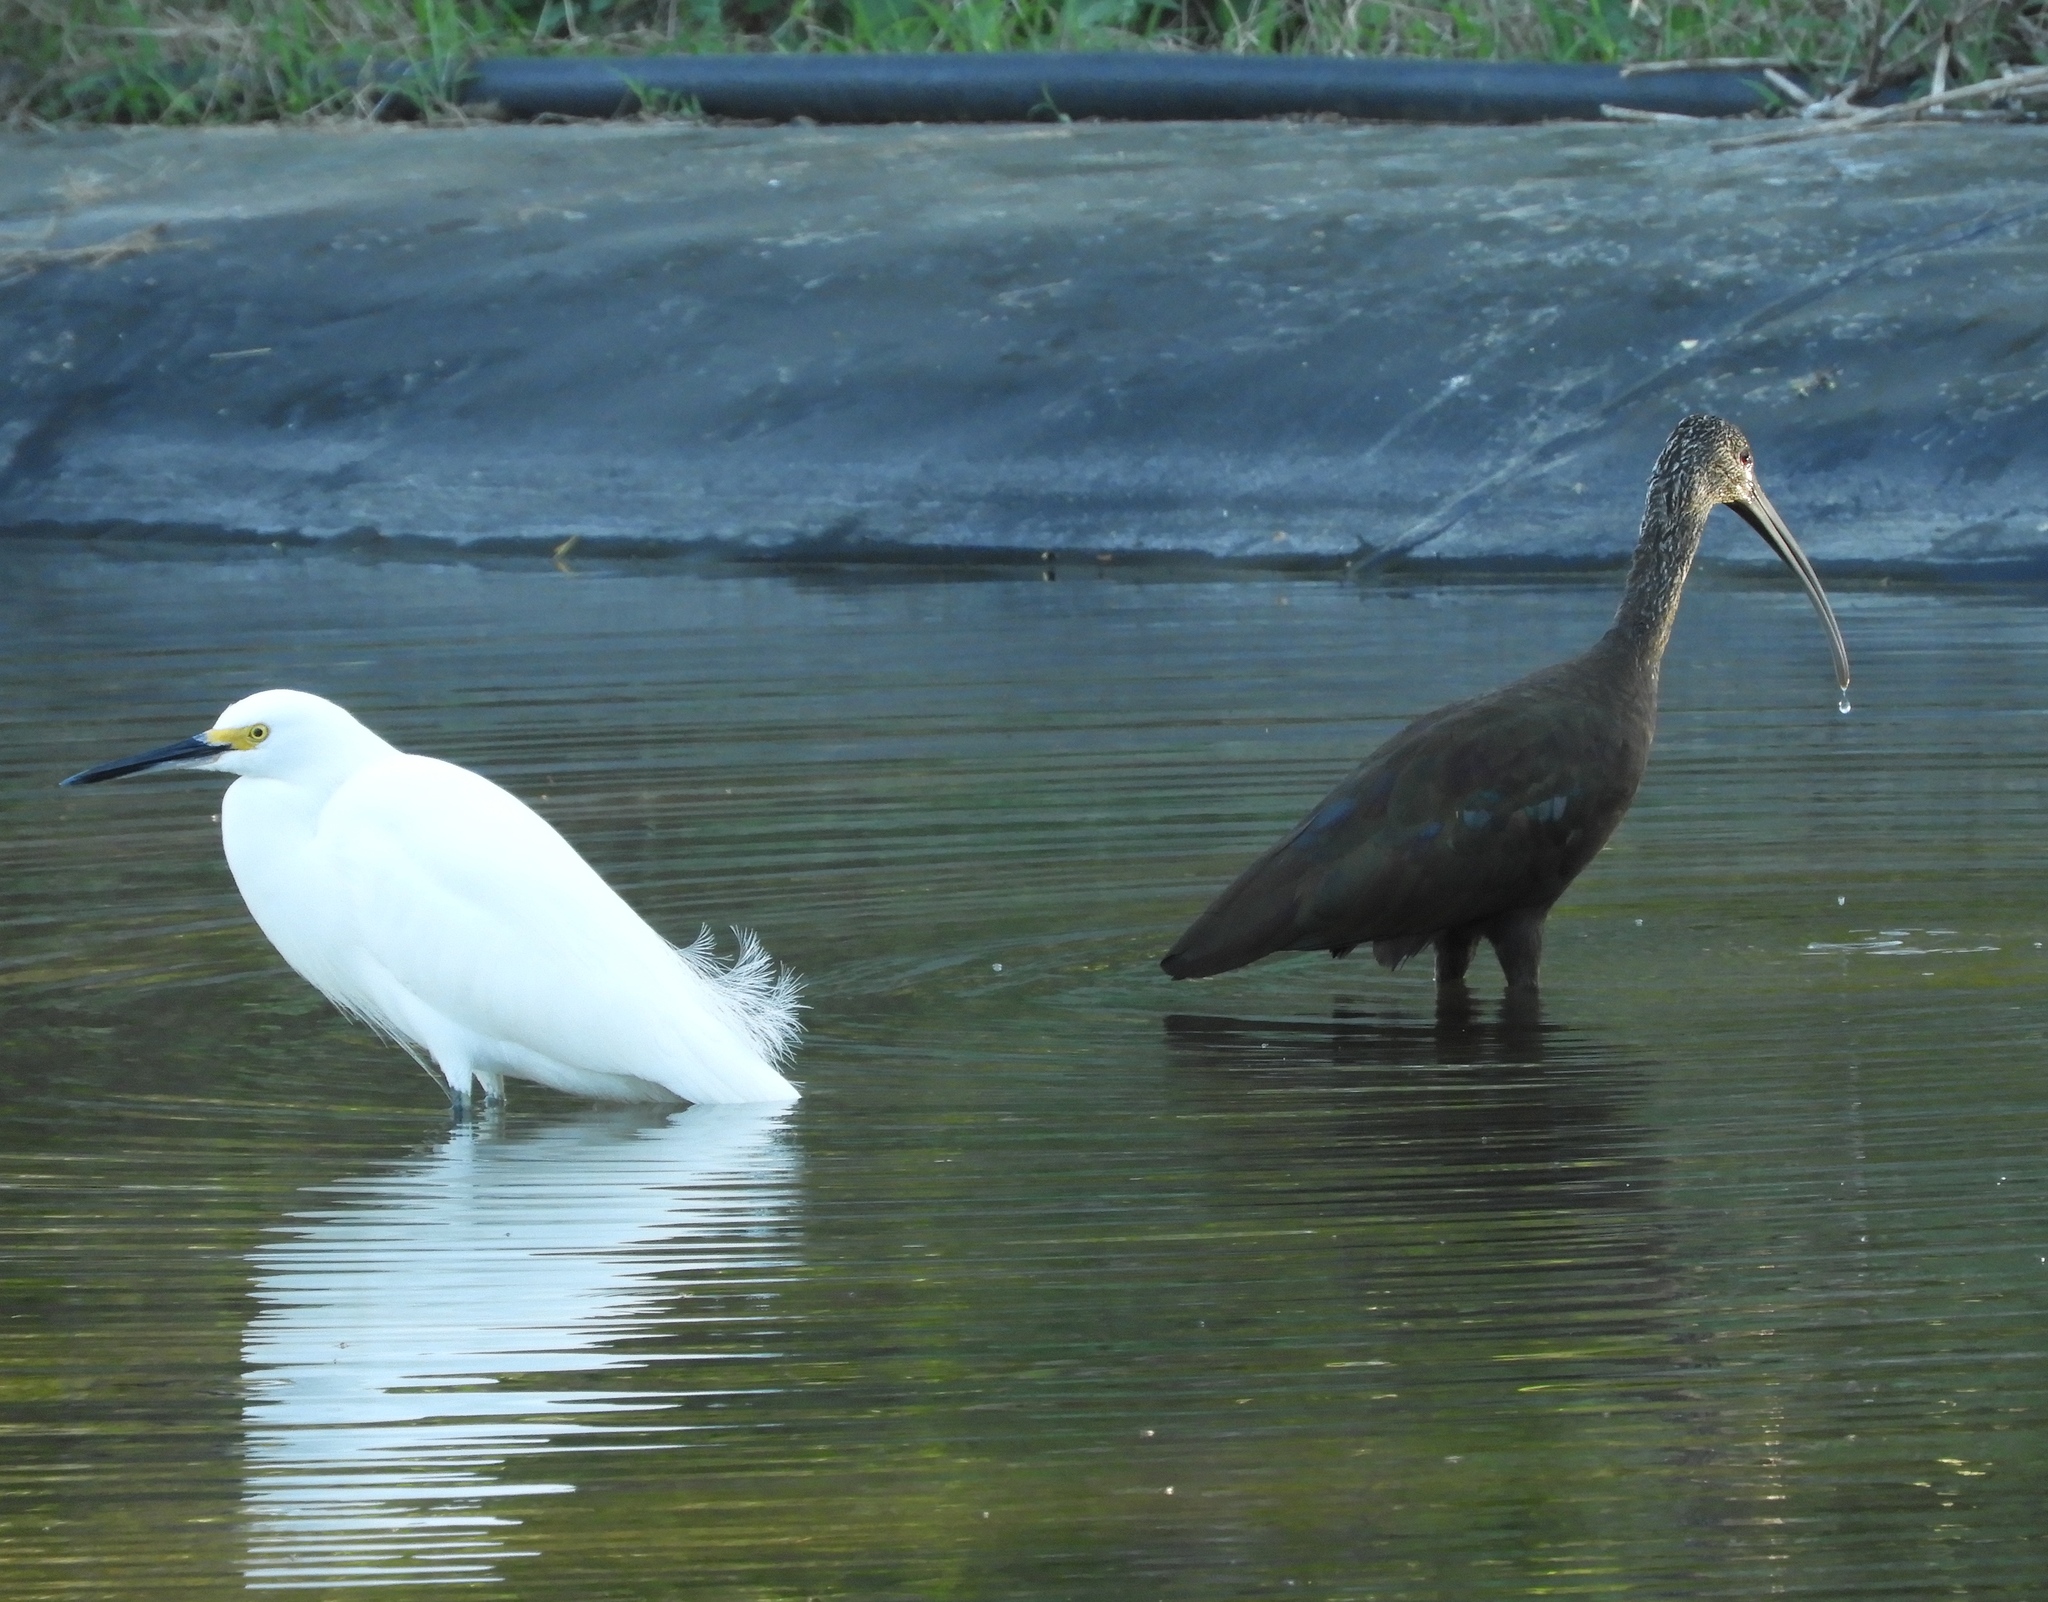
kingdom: Animalia
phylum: Chordata
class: Aves
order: Pelecaniformes
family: Threskiornithidae
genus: Plegadis
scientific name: Plegadis chihi
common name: White-faced ibis
